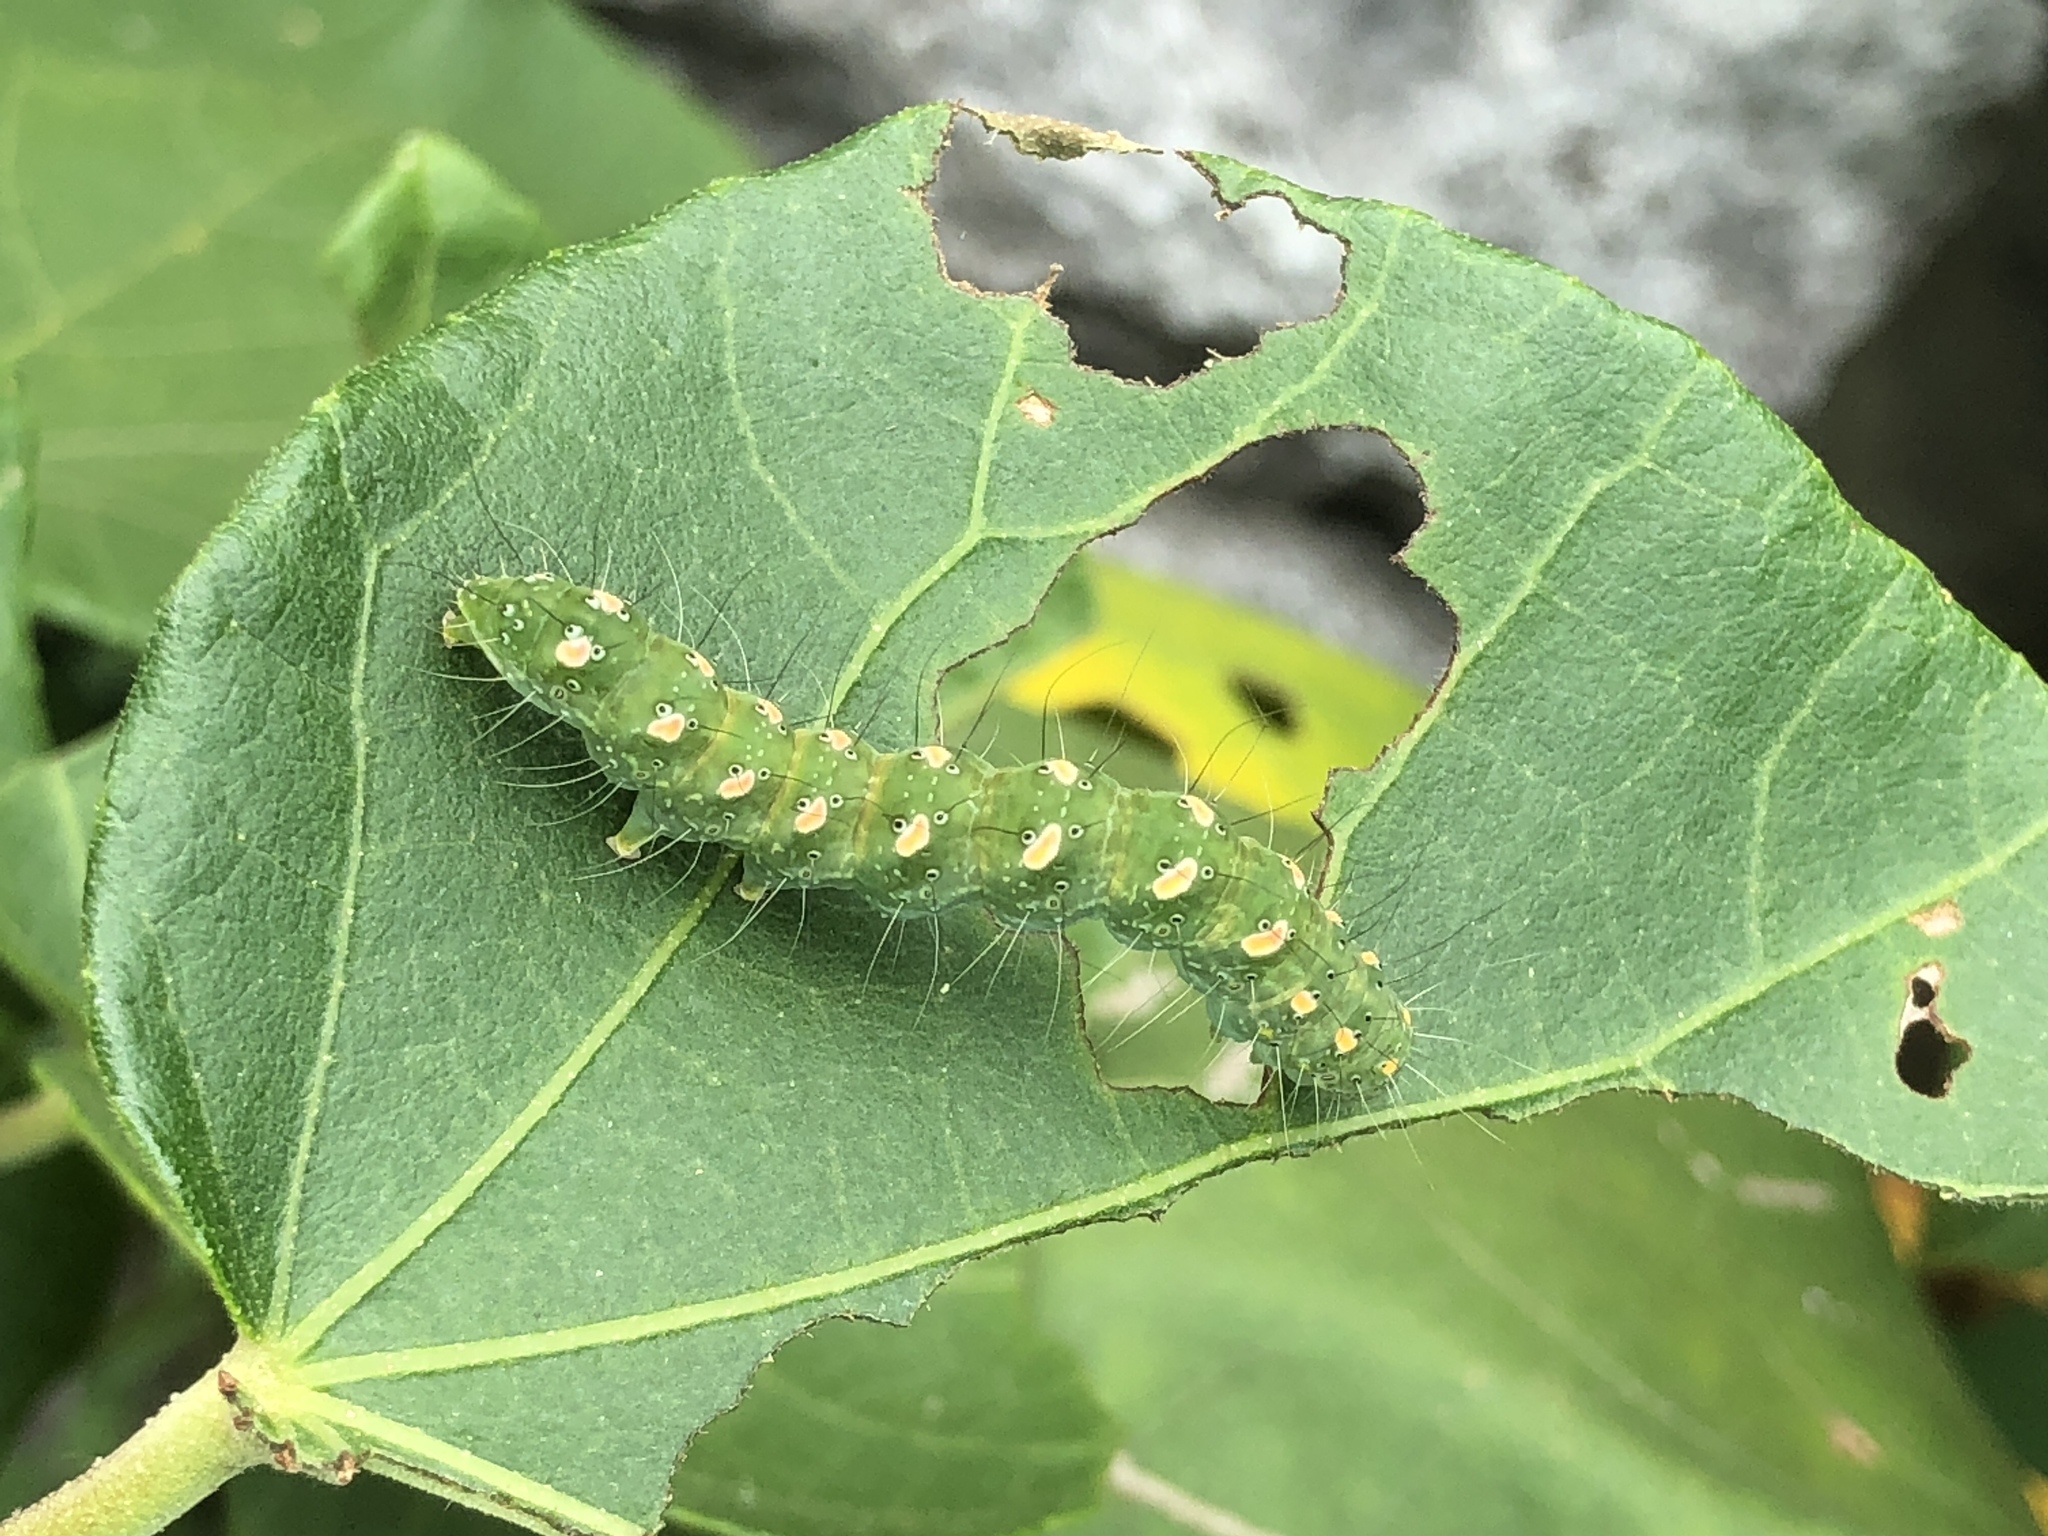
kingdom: Animalia
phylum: Arthropoda
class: Insecta
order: Lepidoptera
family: Nolidae
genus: Xanthodes
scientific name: Xanthodes transversa
